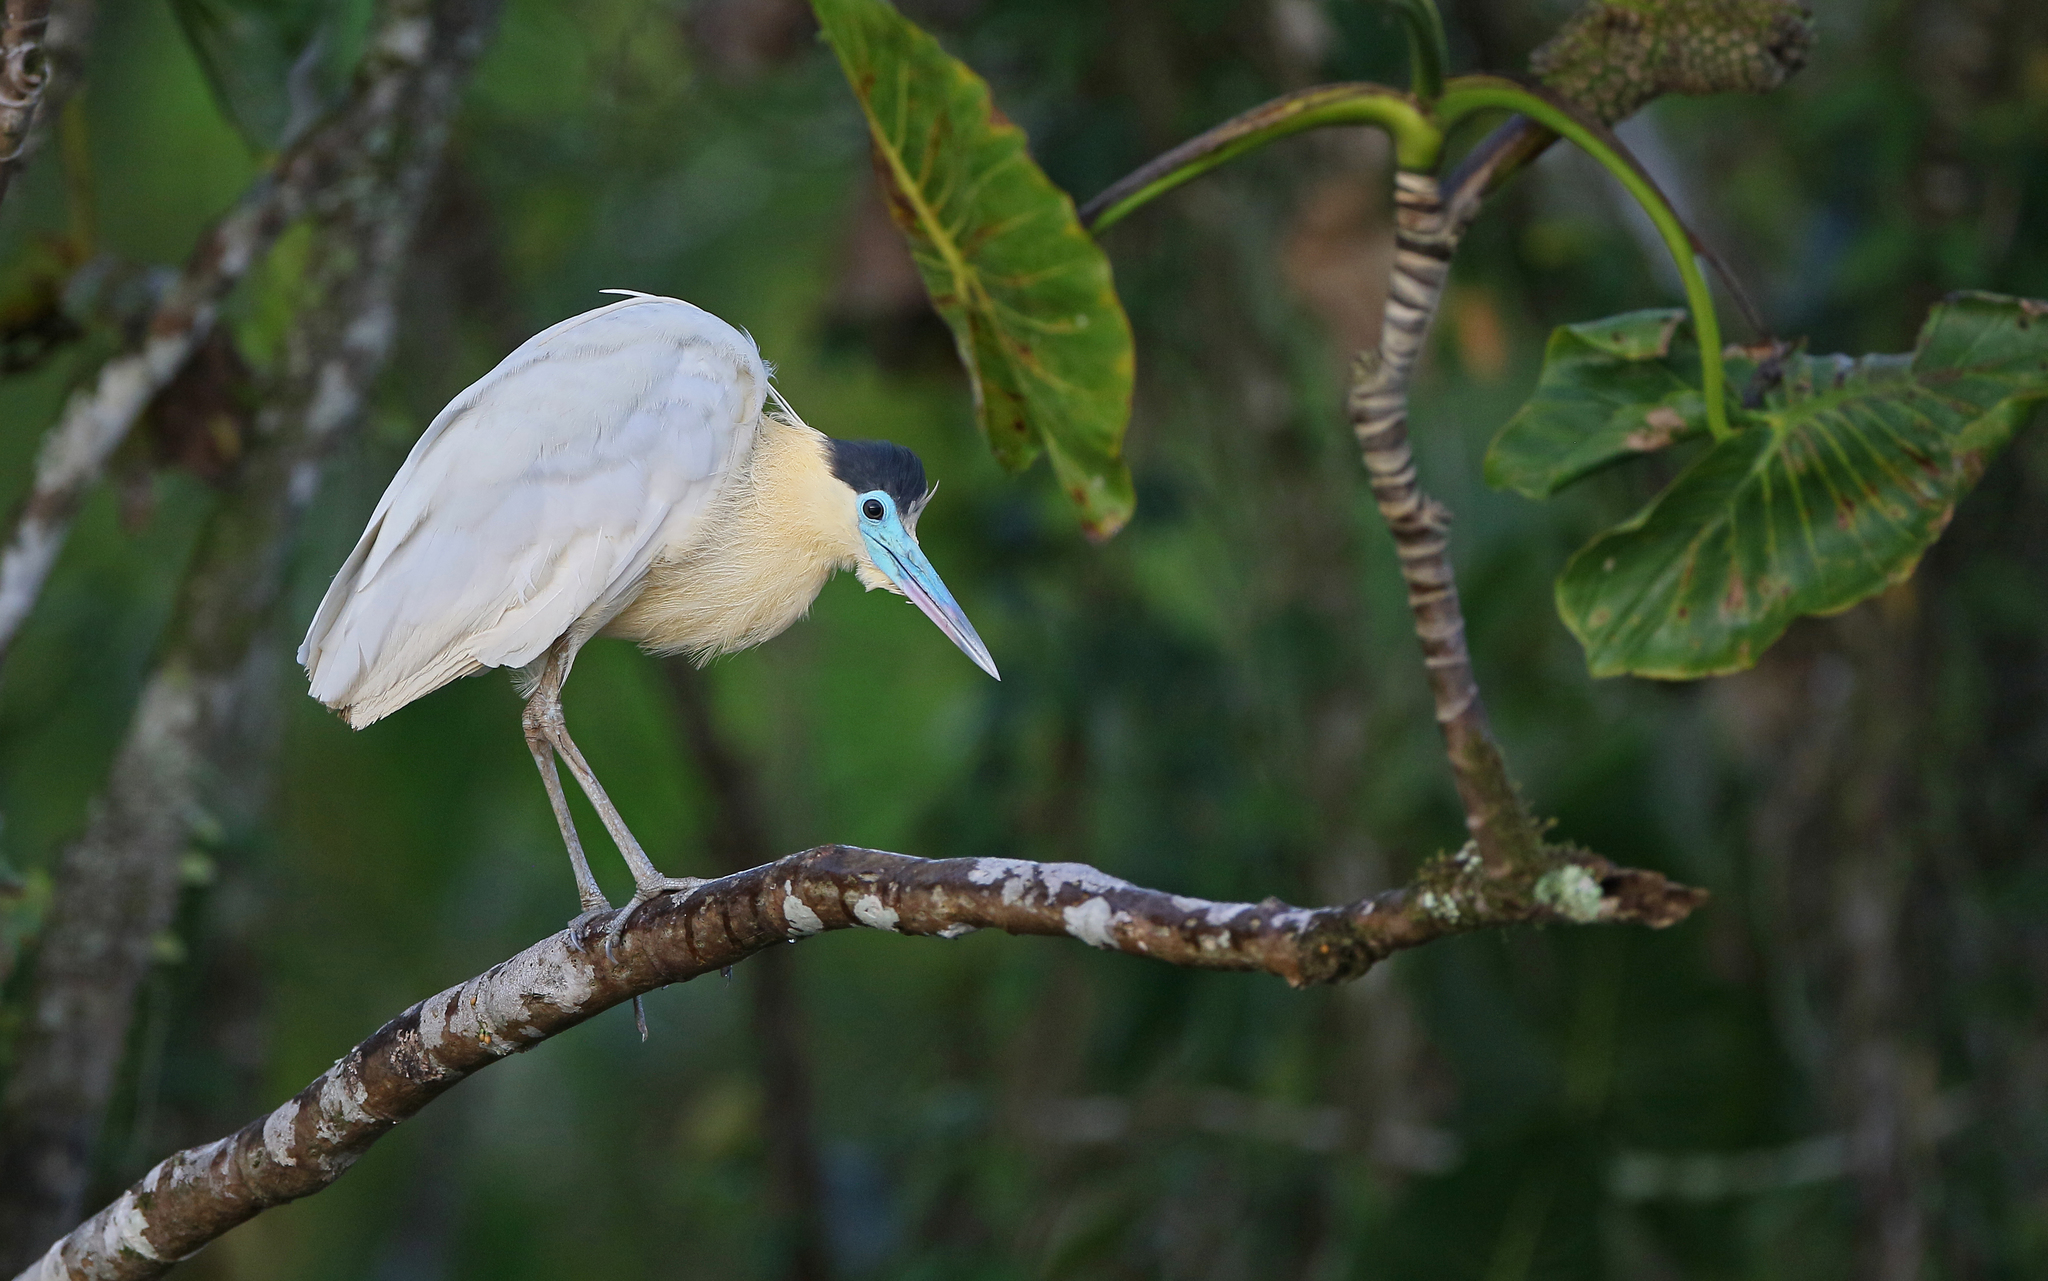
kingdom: Animalia
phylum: Chordata
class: Aves
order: Pelecaniformes
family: Ardeidae
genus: Pilherodius
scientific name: Pilherodius pileatus
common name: Capped heron
